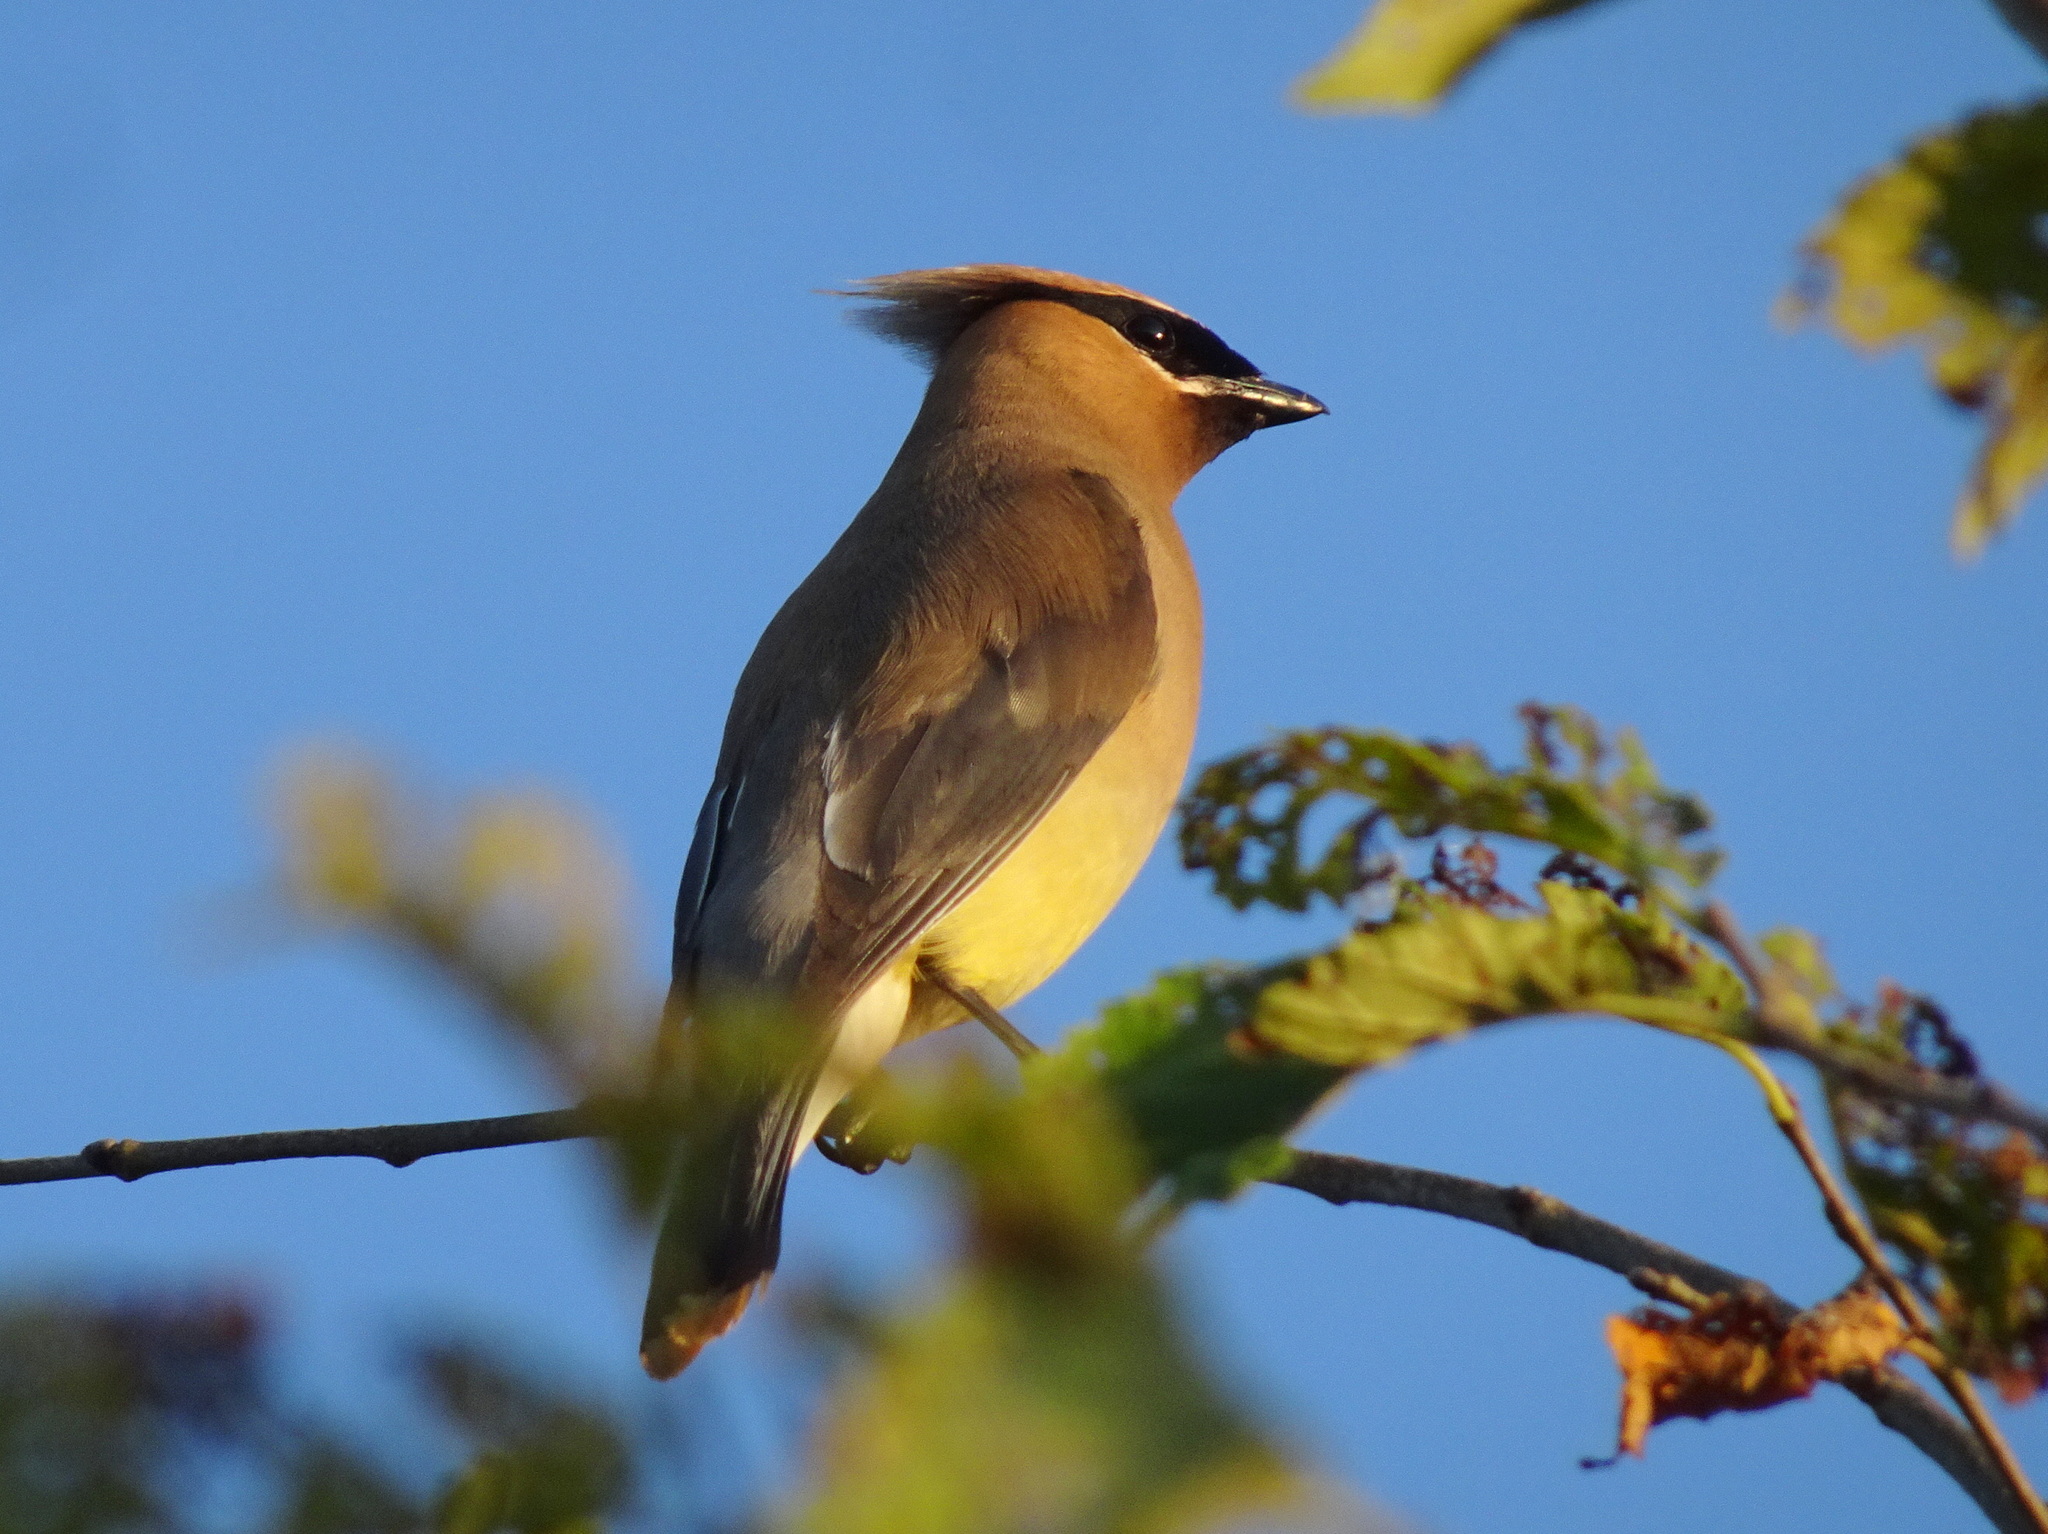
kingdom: Animalia
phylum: Chordata
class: Aves
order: Passeriformes
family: Bombycillidae
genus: Bombycilla
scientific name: Bombycilla cedrorum
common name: Cedar waxwing
